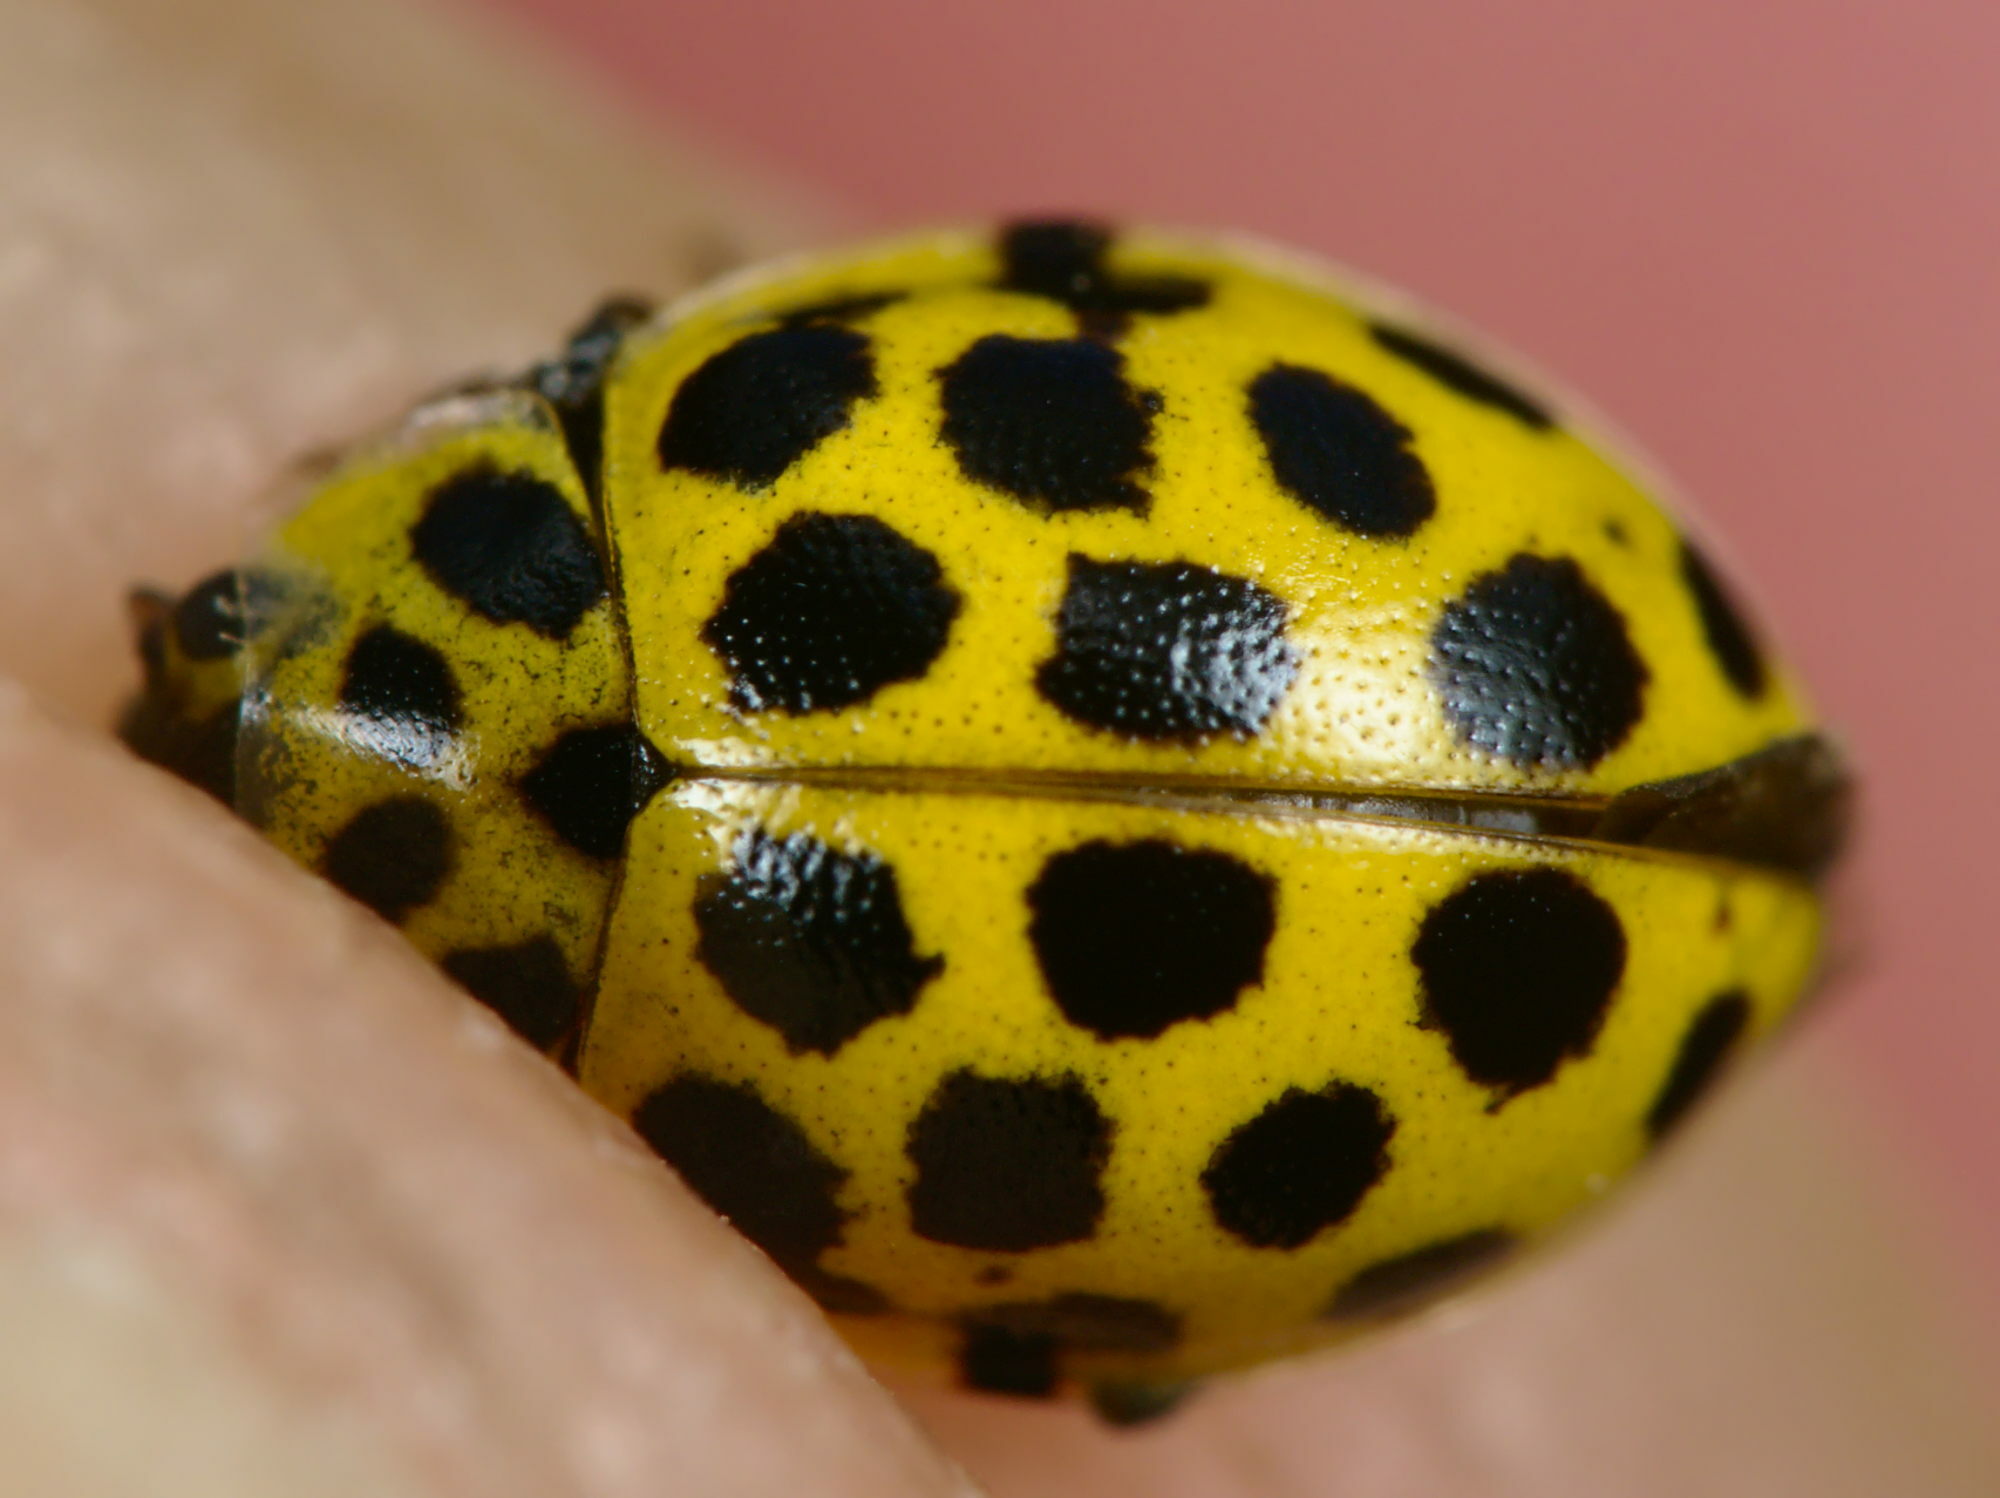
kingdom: Animalia
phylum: Arthropoda
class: Insecta
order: Coleoptera
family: Coccinellidae
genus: Psyllobora
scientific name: Psyllobora vigintiduopunctata
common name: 22-spot ladybird
